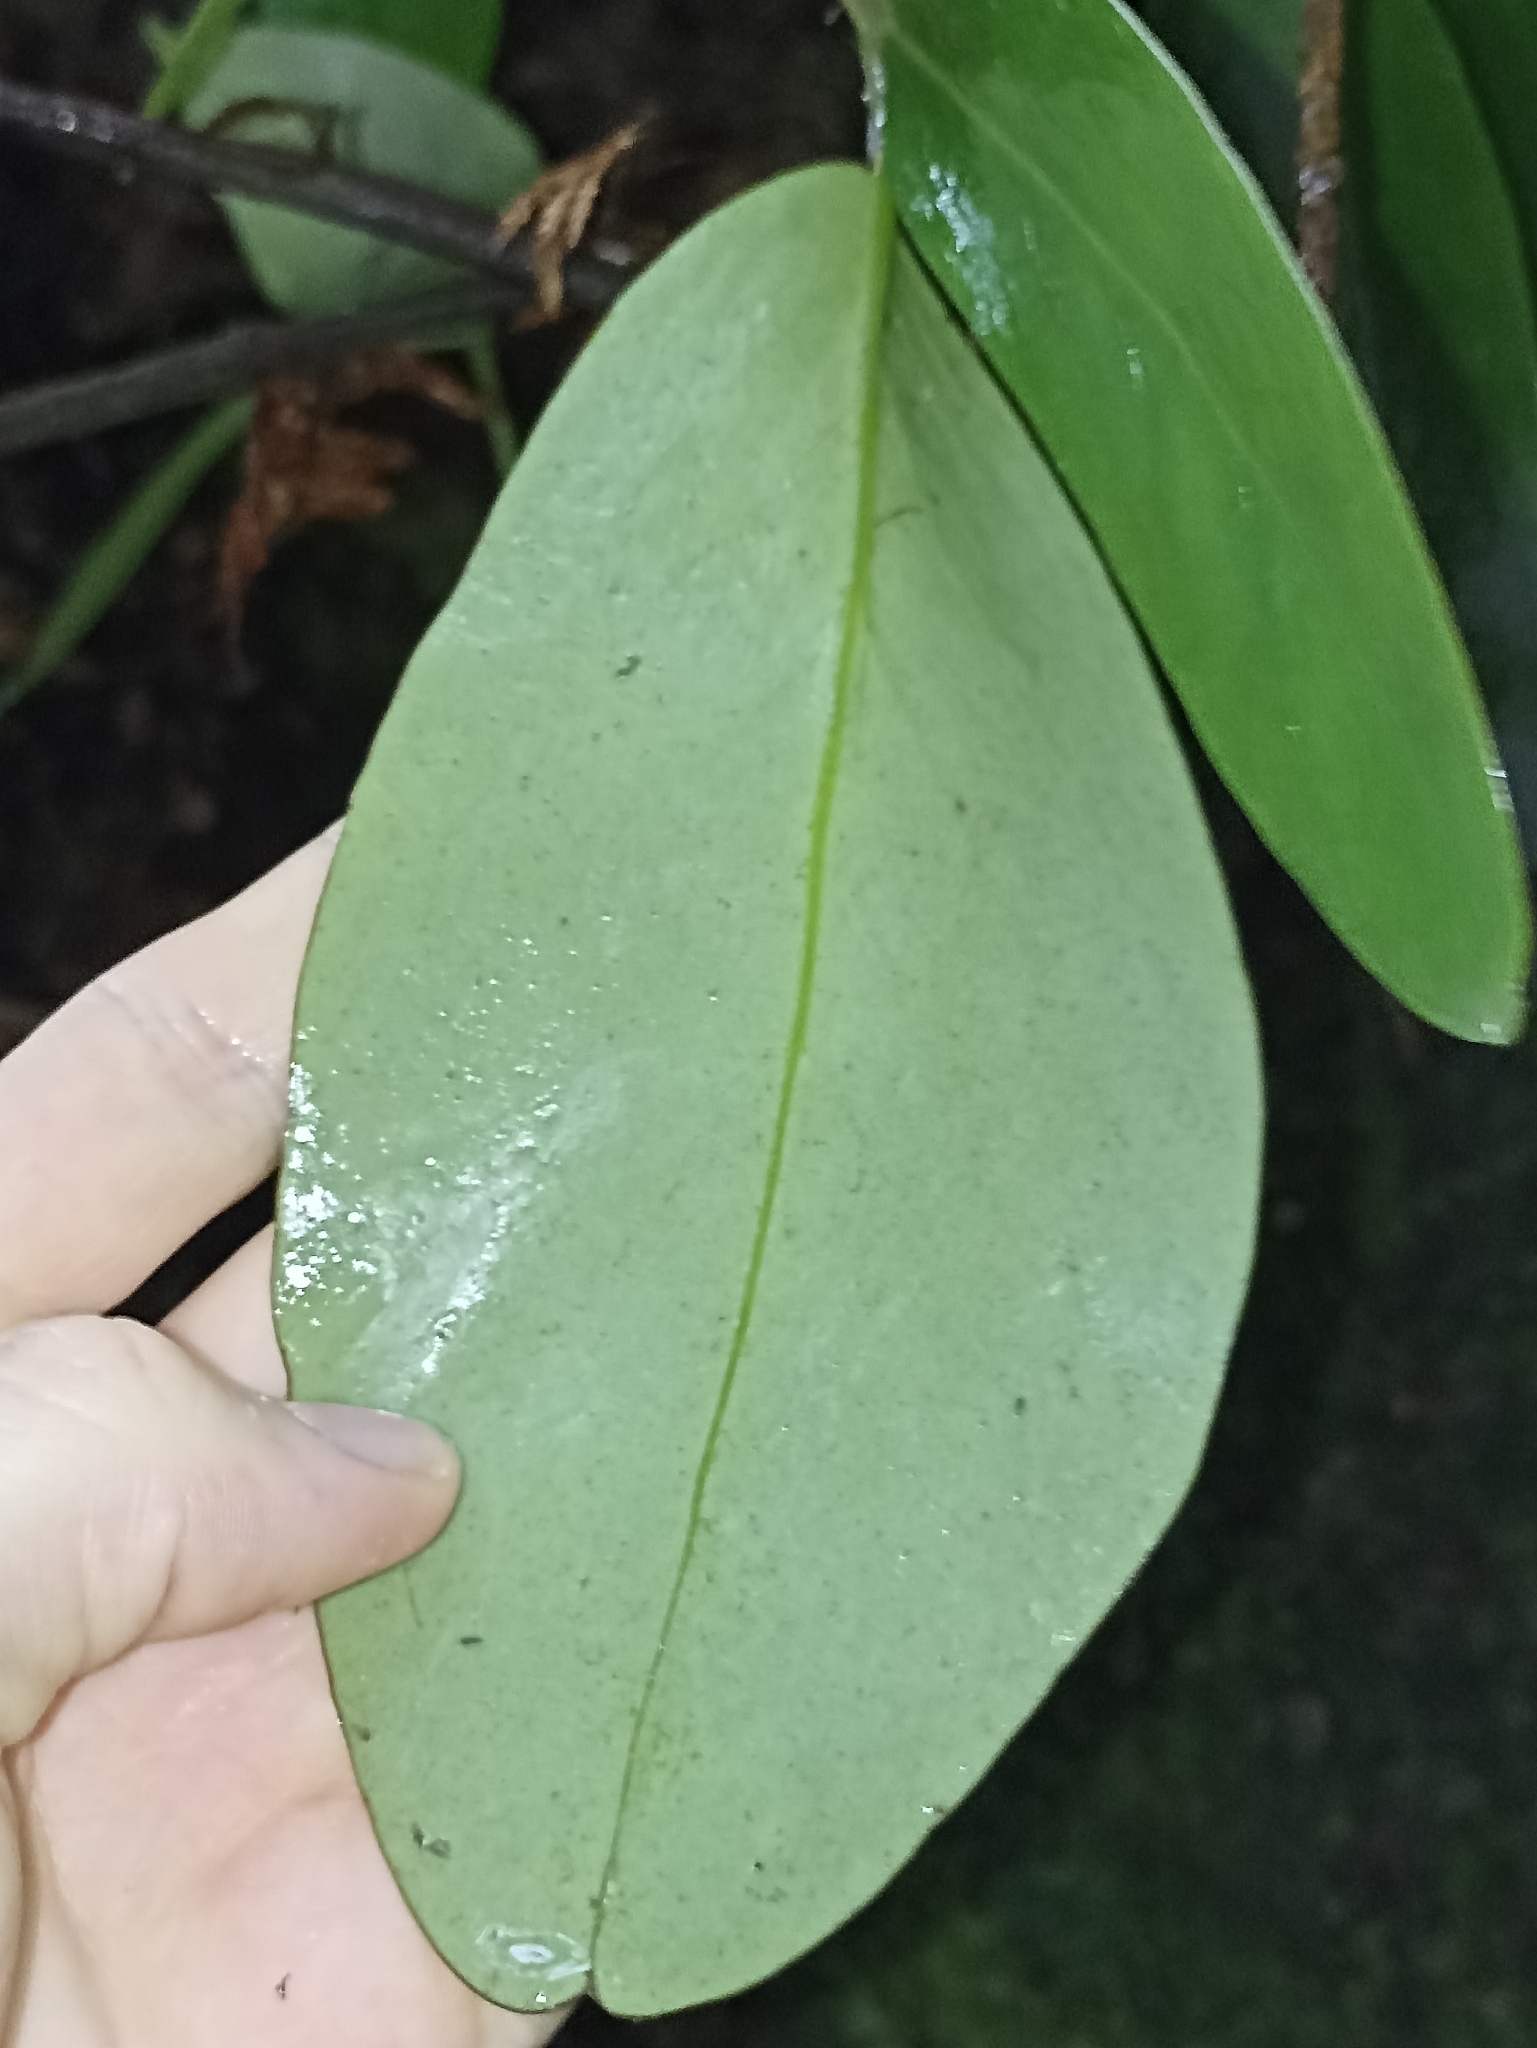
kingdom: Plantae
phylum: Tracheophyta
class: Magnoliopsida
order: Apiales
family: Griseliniaceae
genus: Griselinia
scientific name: Griselinia lucida
